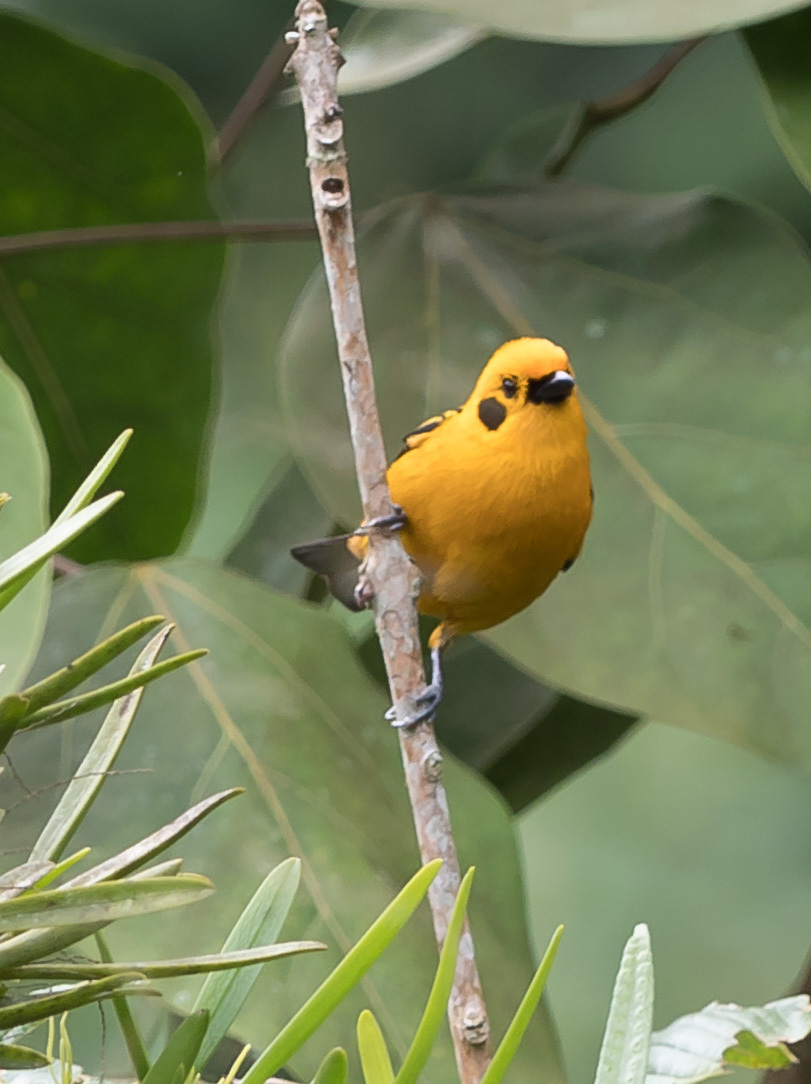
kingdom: Animalia
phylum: Chordata
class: Aves
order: Passeriformes
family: Thraupidae
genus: Tangara
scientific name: Tangara arthus
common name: Golden tanager
